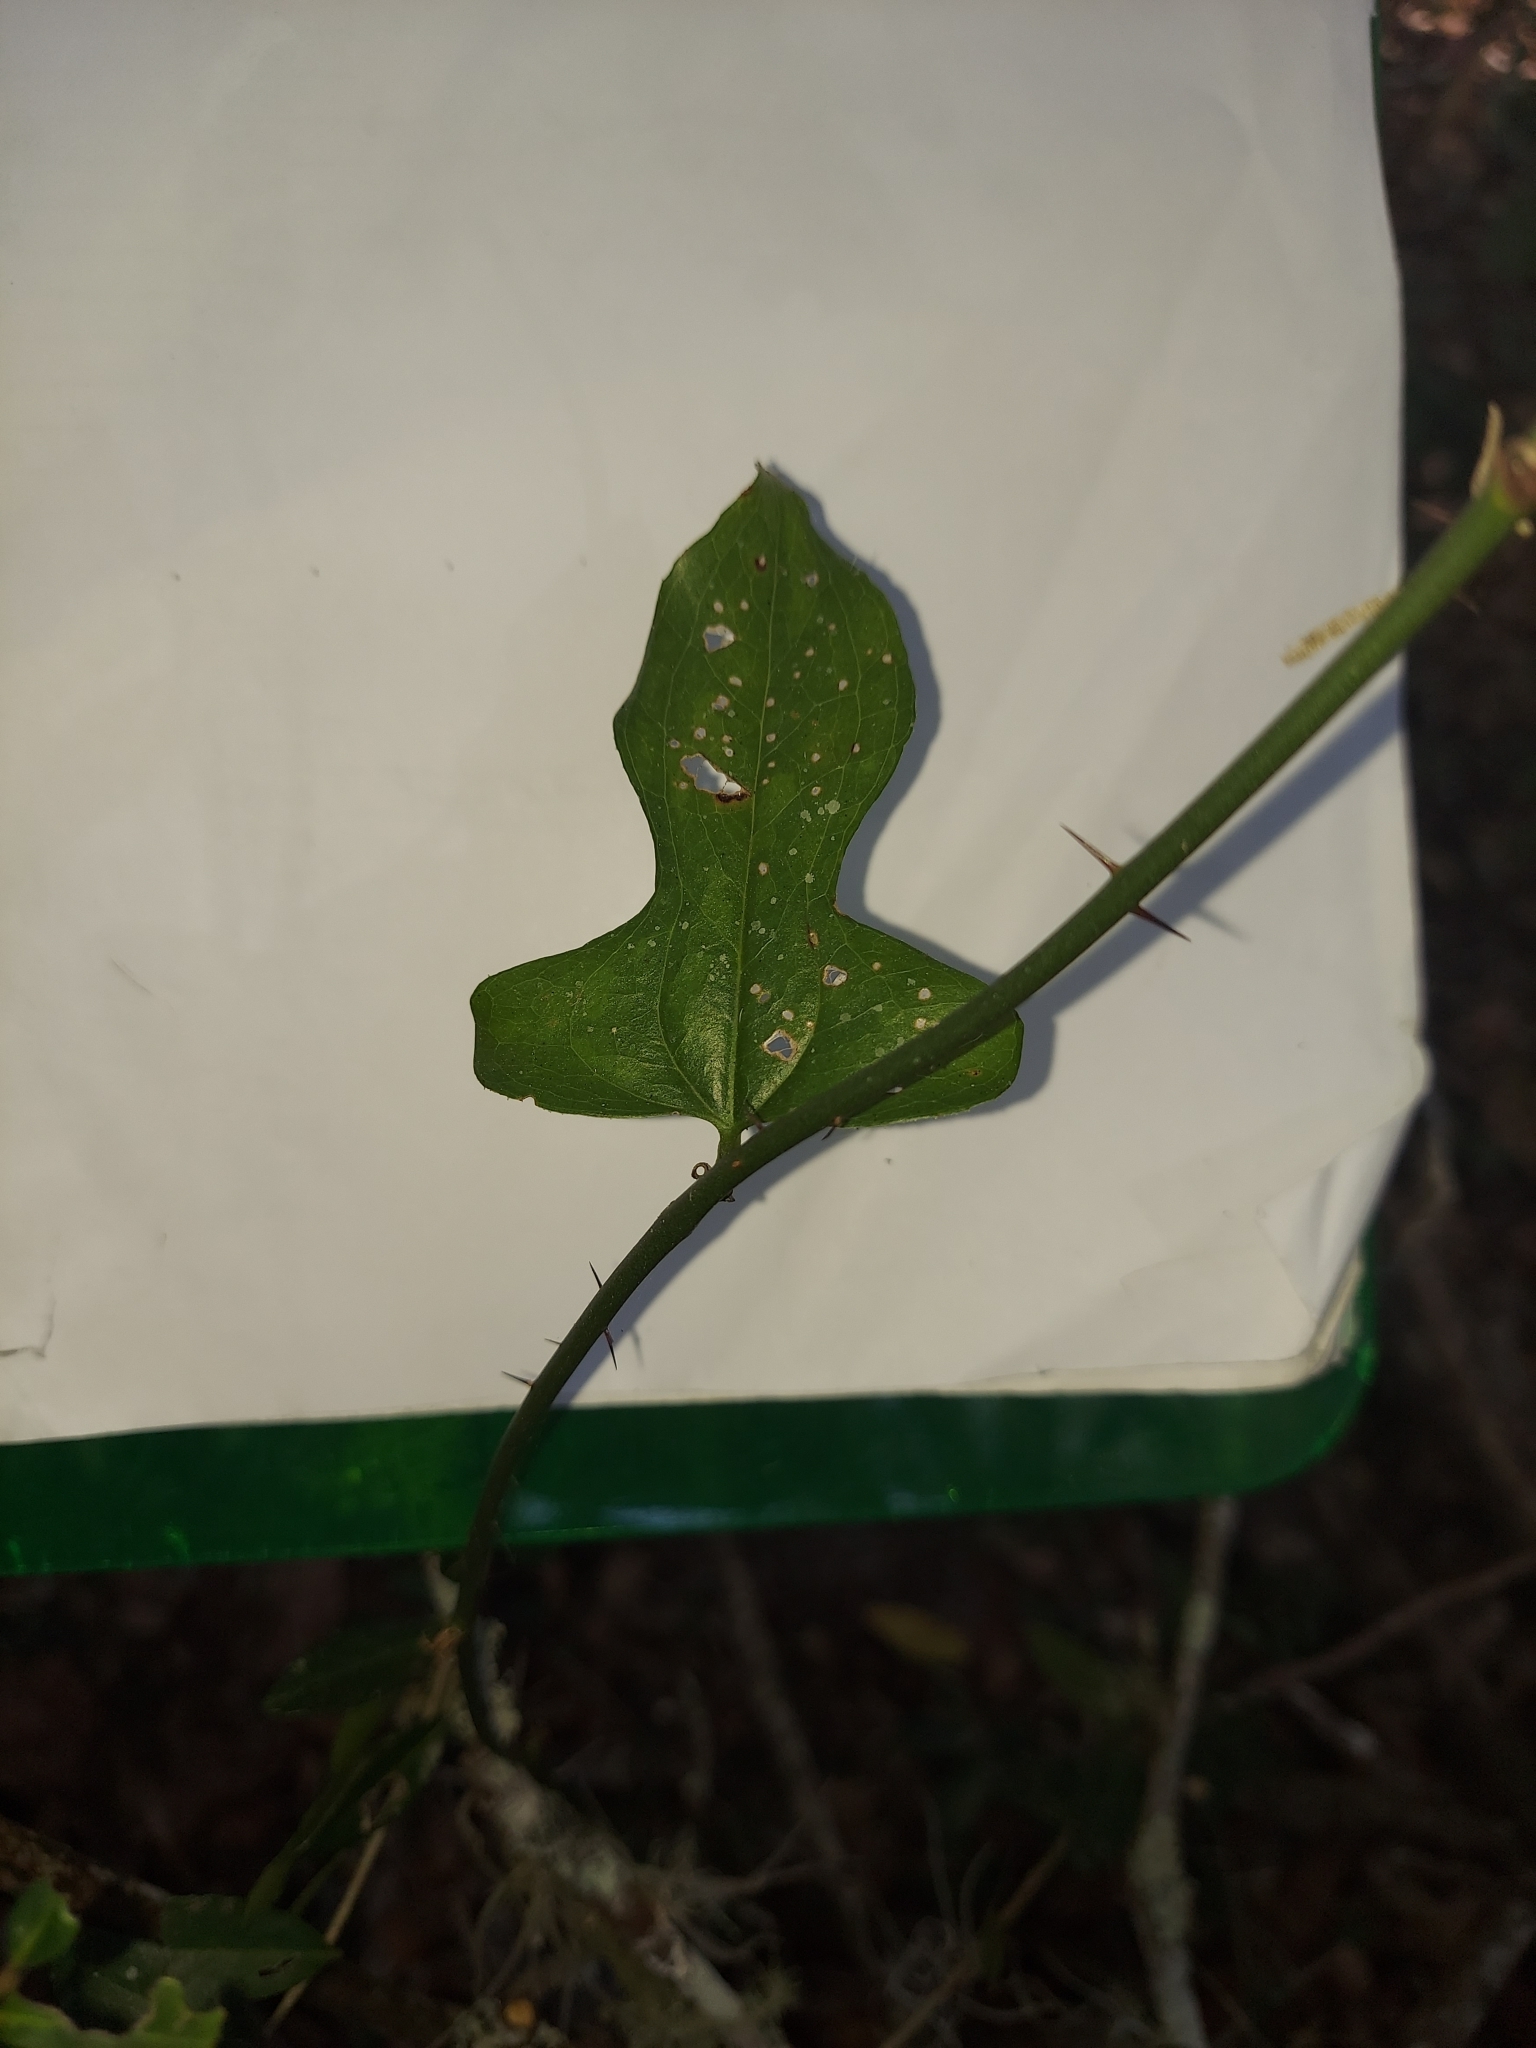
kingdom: Plantae
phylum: Tracheophyta
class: Liliopsida
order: Liliales
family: Smilacaceae
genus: Smilax
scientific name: Smilax tamnoides
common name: Hellfetter
